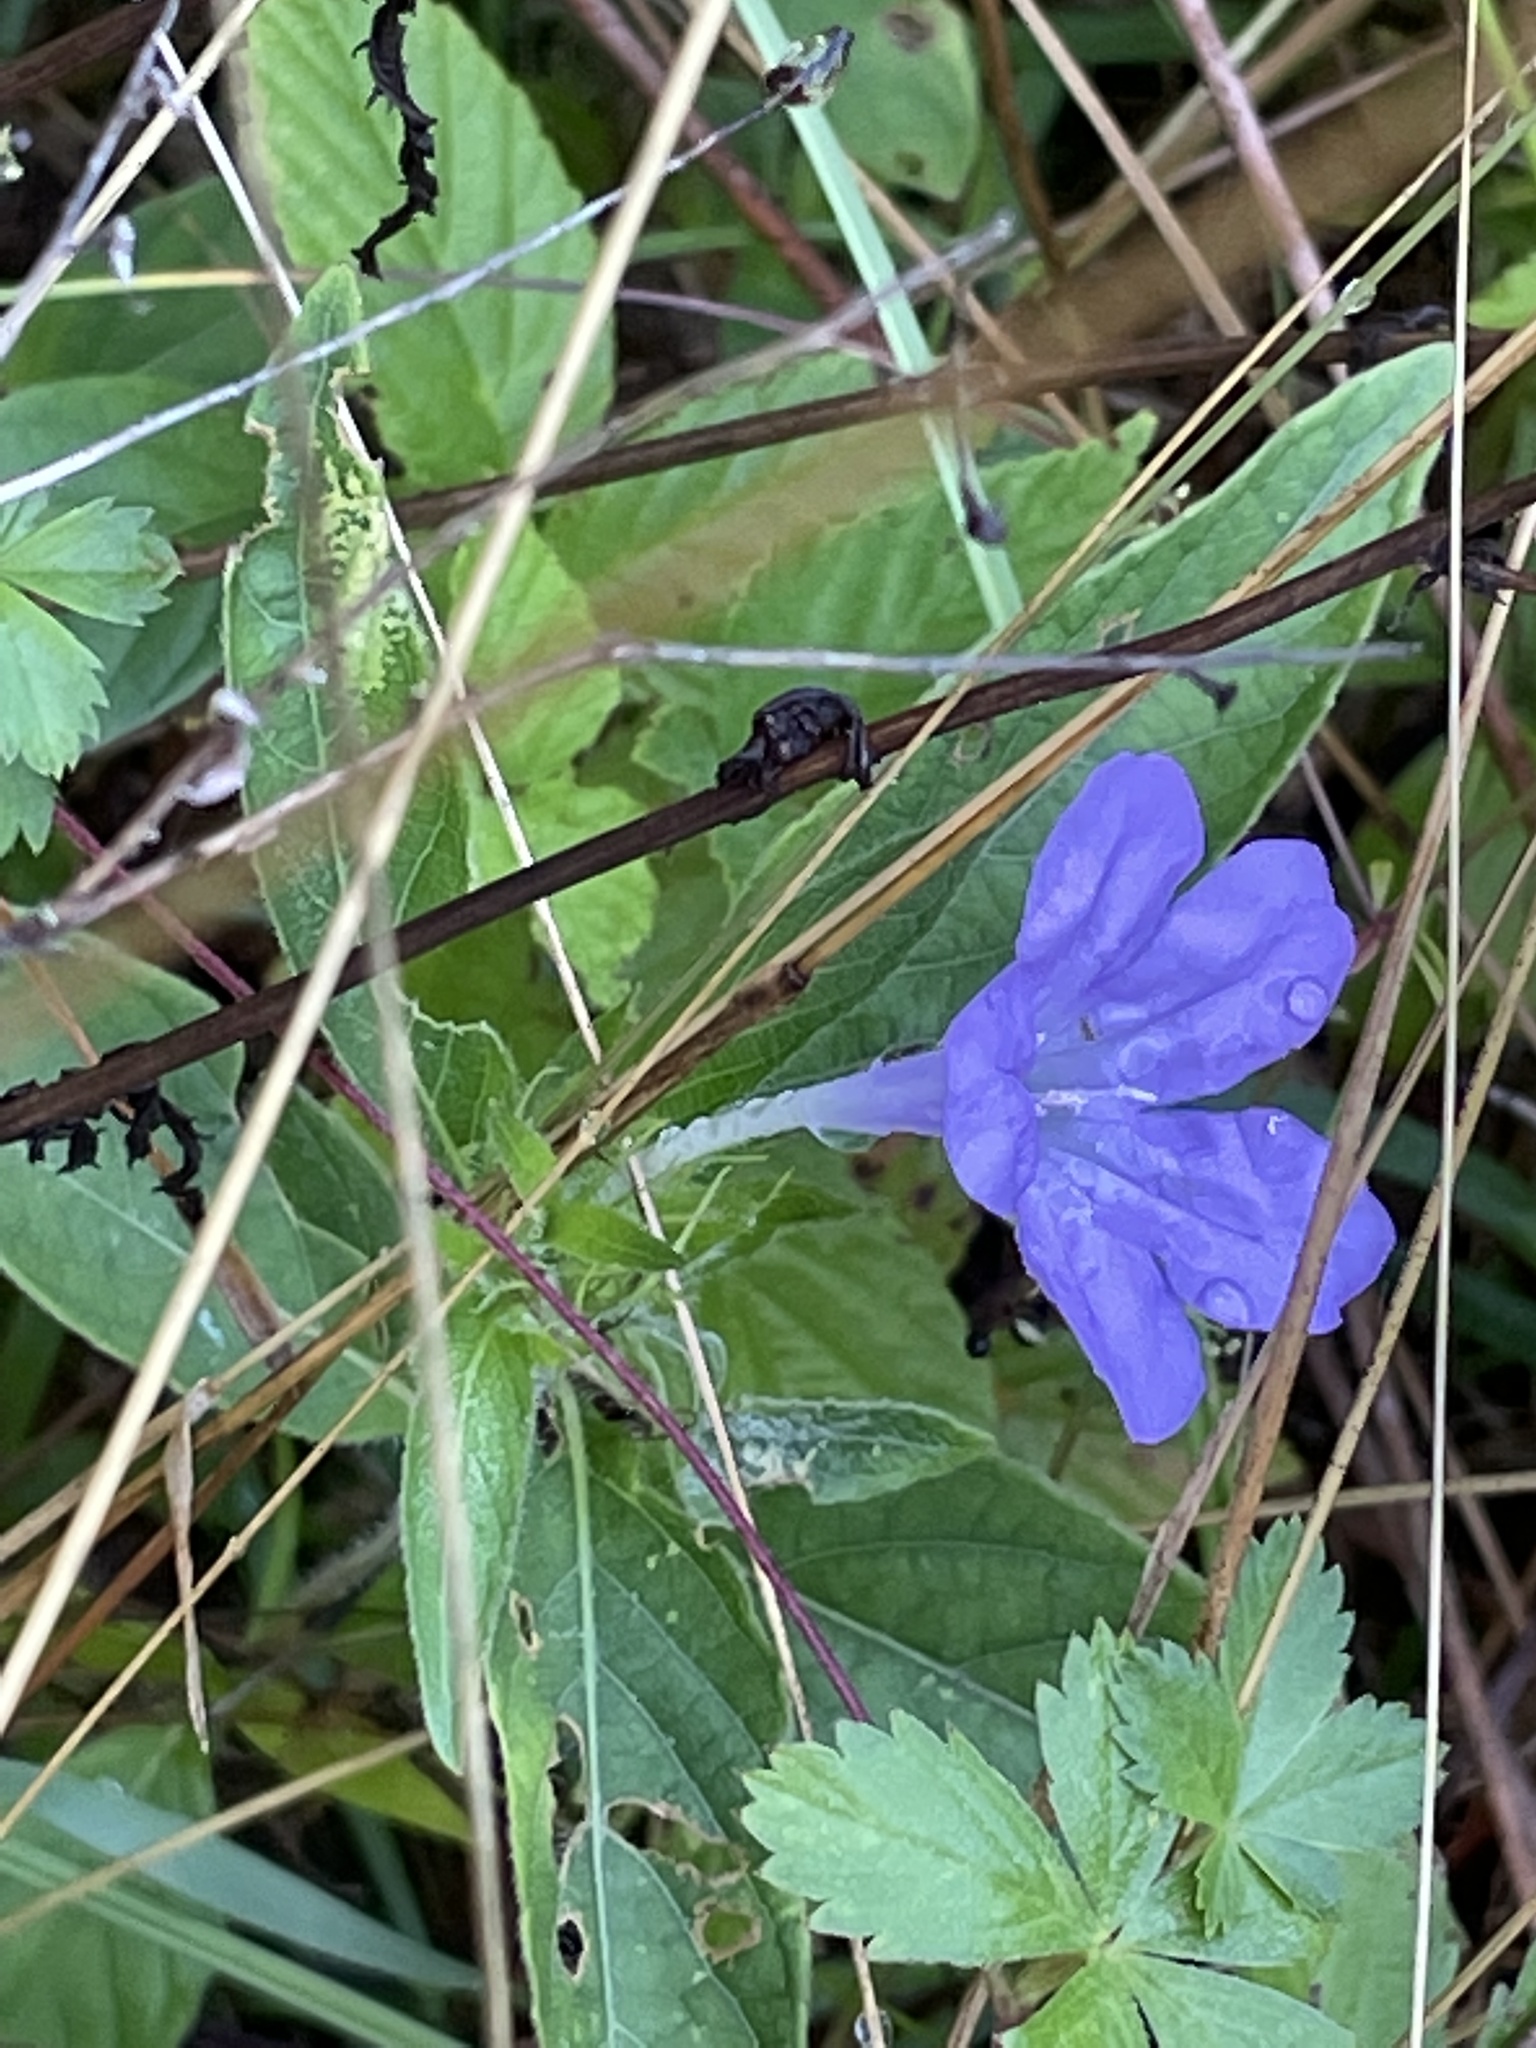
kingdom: Plantae
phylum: Tracheophyta
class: Magnoliopsida
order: Lamiales
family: Acanthaceae
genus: Ruellia
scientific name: Ruellia caroliniensis
